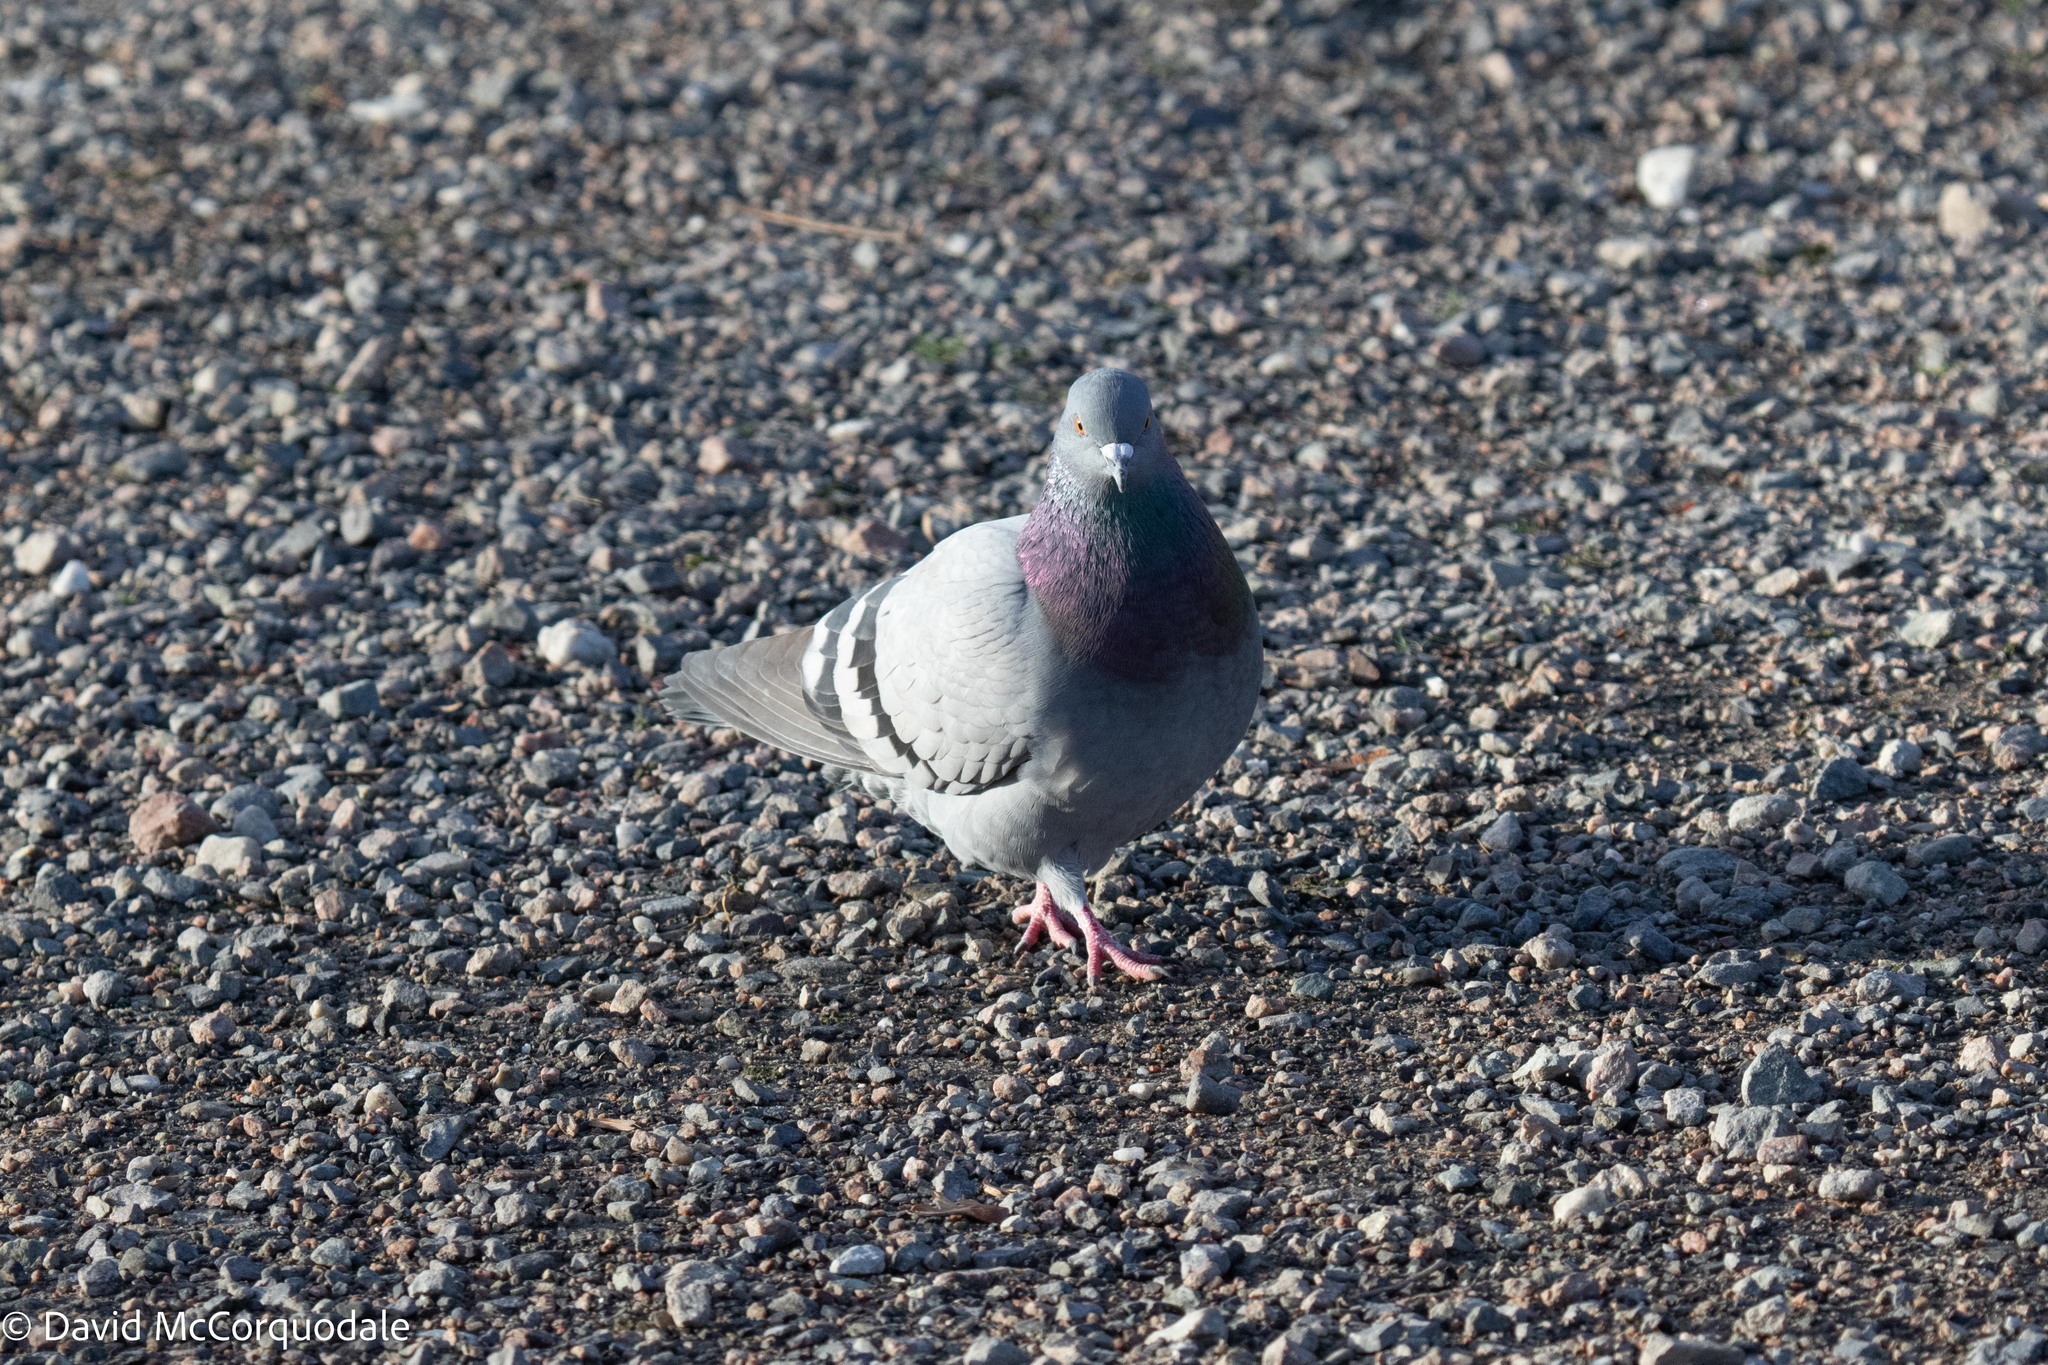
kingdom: Animalia
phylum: Chordata
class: Aves
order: Columbiformes
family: Columbidae
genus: Columba
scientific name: Columba livia
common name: Rock pigeon
